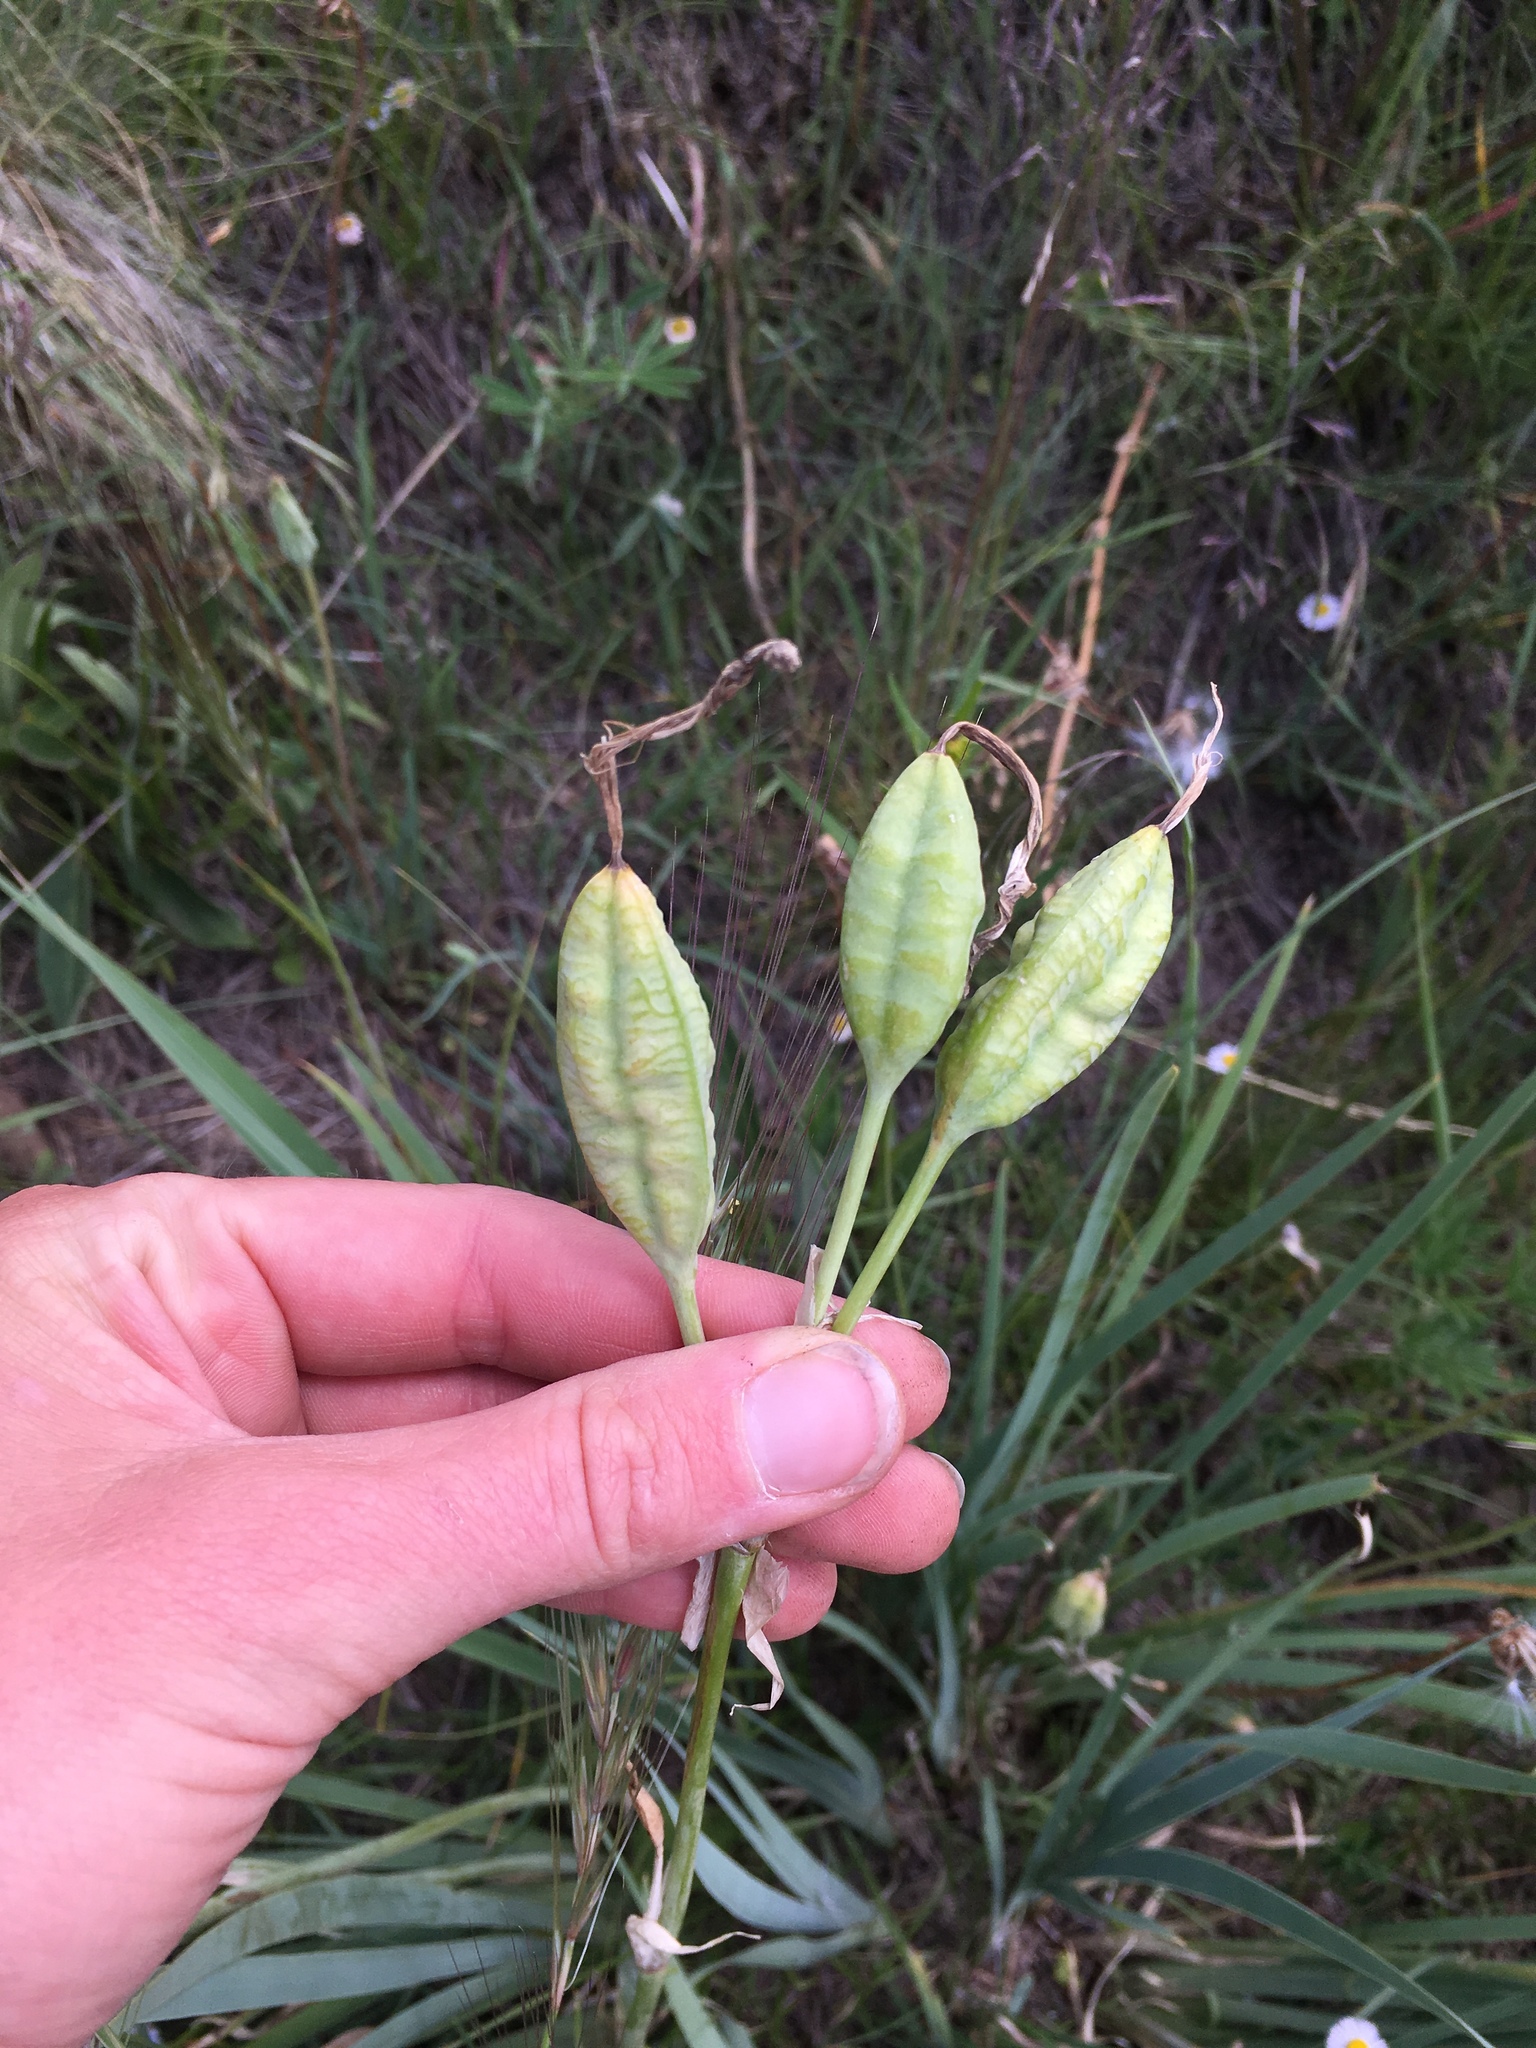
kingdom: Plantae
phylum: Tracheophyta
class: Liliopsida
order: Asparagales
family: Iridaceae
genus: Iris
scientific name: Iris missouriensis
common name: Rocky mountain iris
